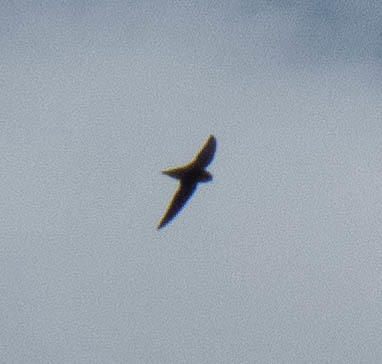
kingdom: Animalia
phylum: Chordata
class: Aves
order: Apodiformes
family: Apodidae
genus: Chaetura
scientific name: Chaetura pelagica
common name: Chimney swift
